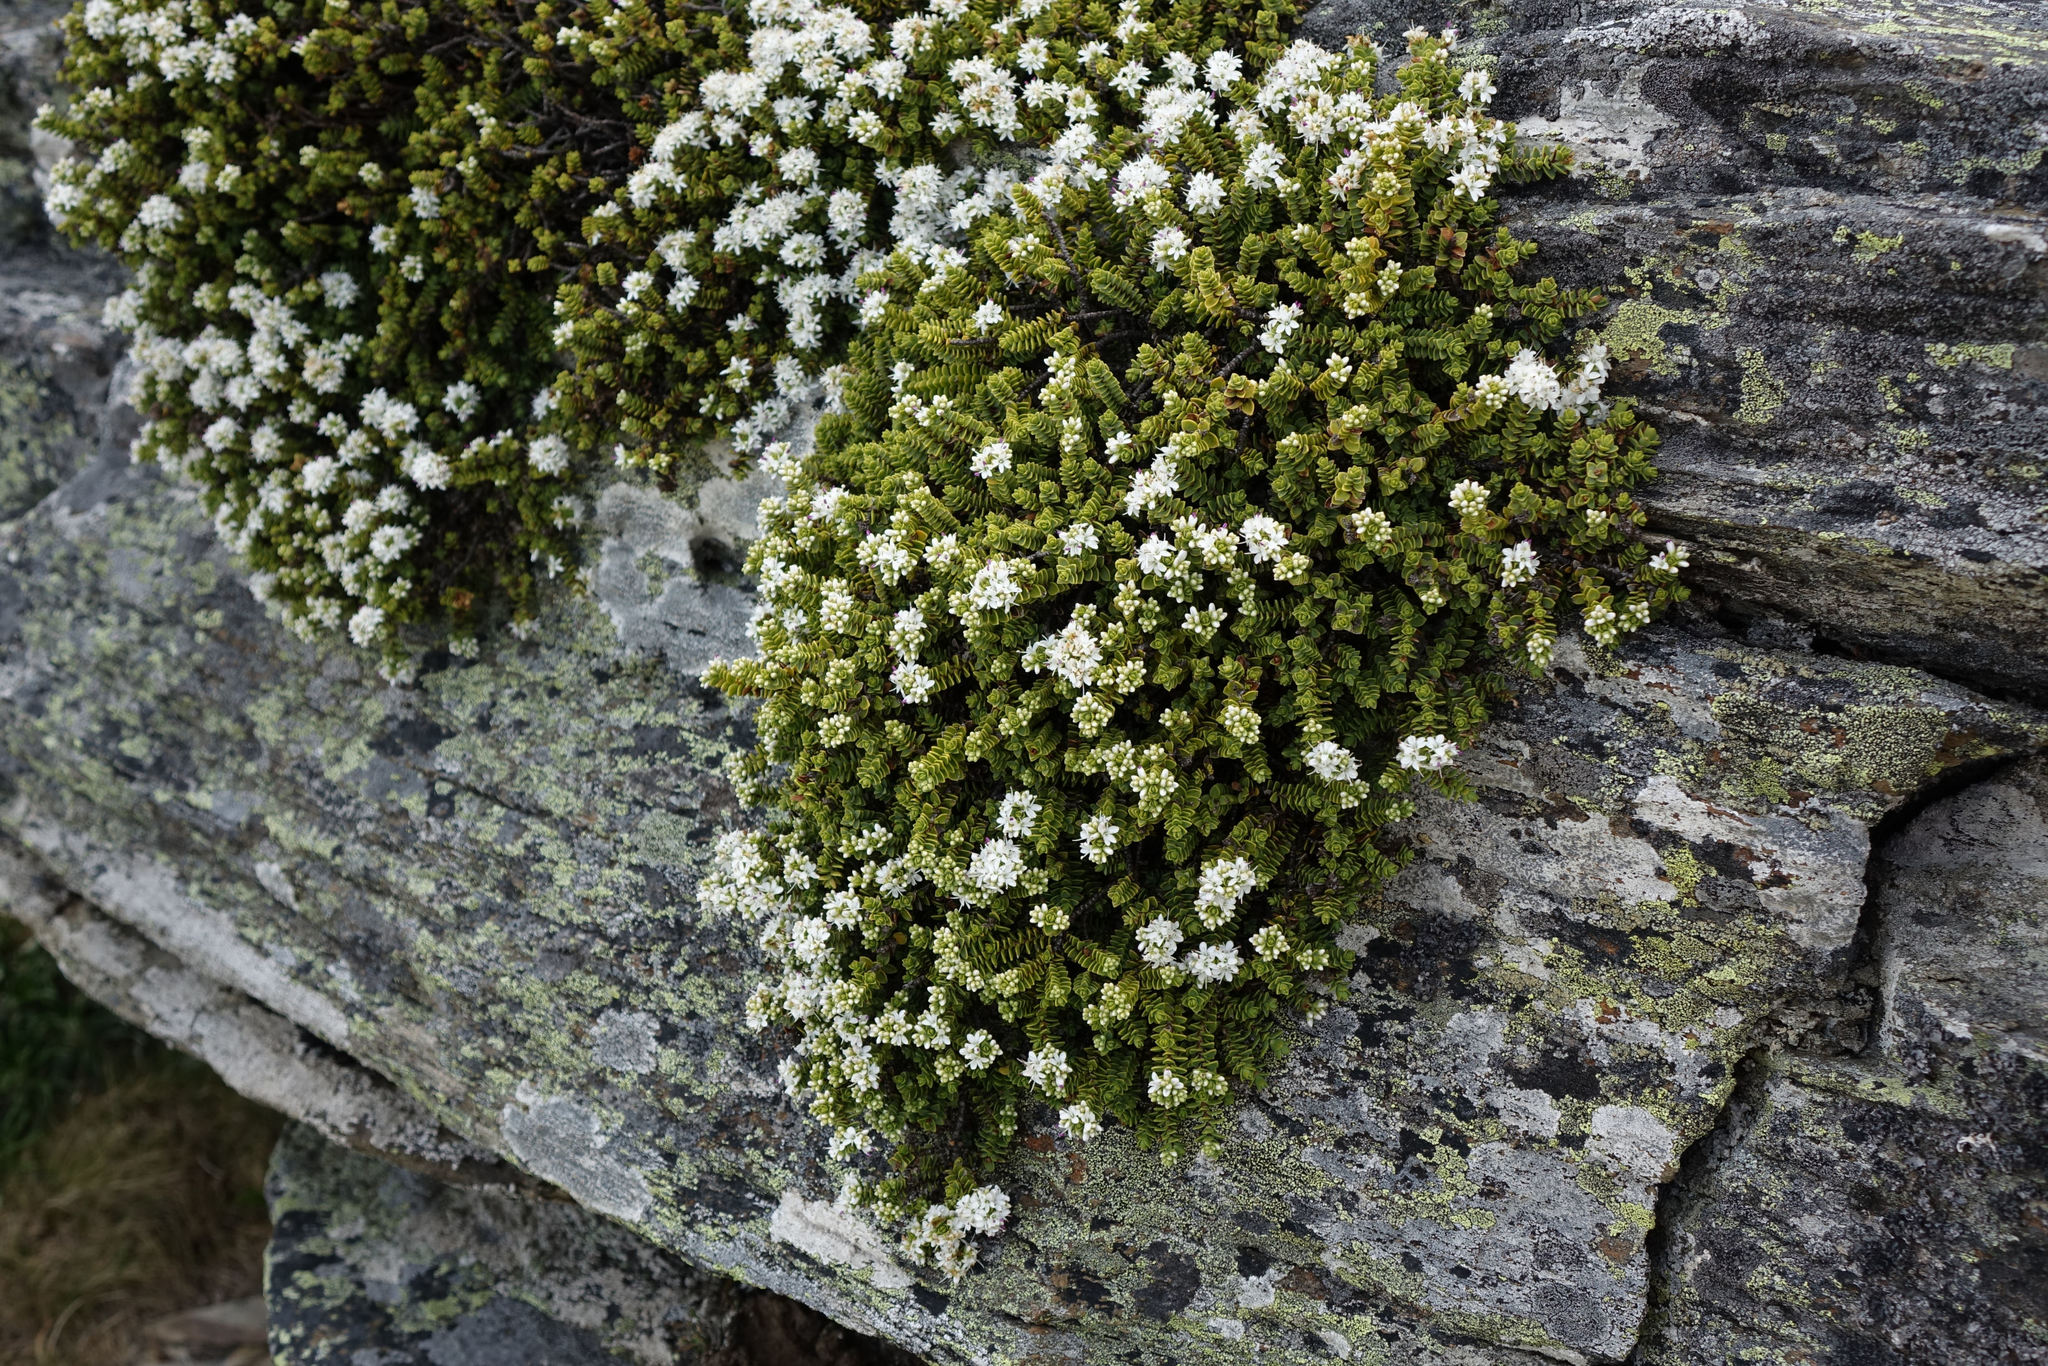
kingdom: Plantae
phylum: Tracheophyta
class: Magnoliopsida
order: Lamiales
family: Plantaginaceae
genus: Veronica
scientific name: Veronica buchananii
